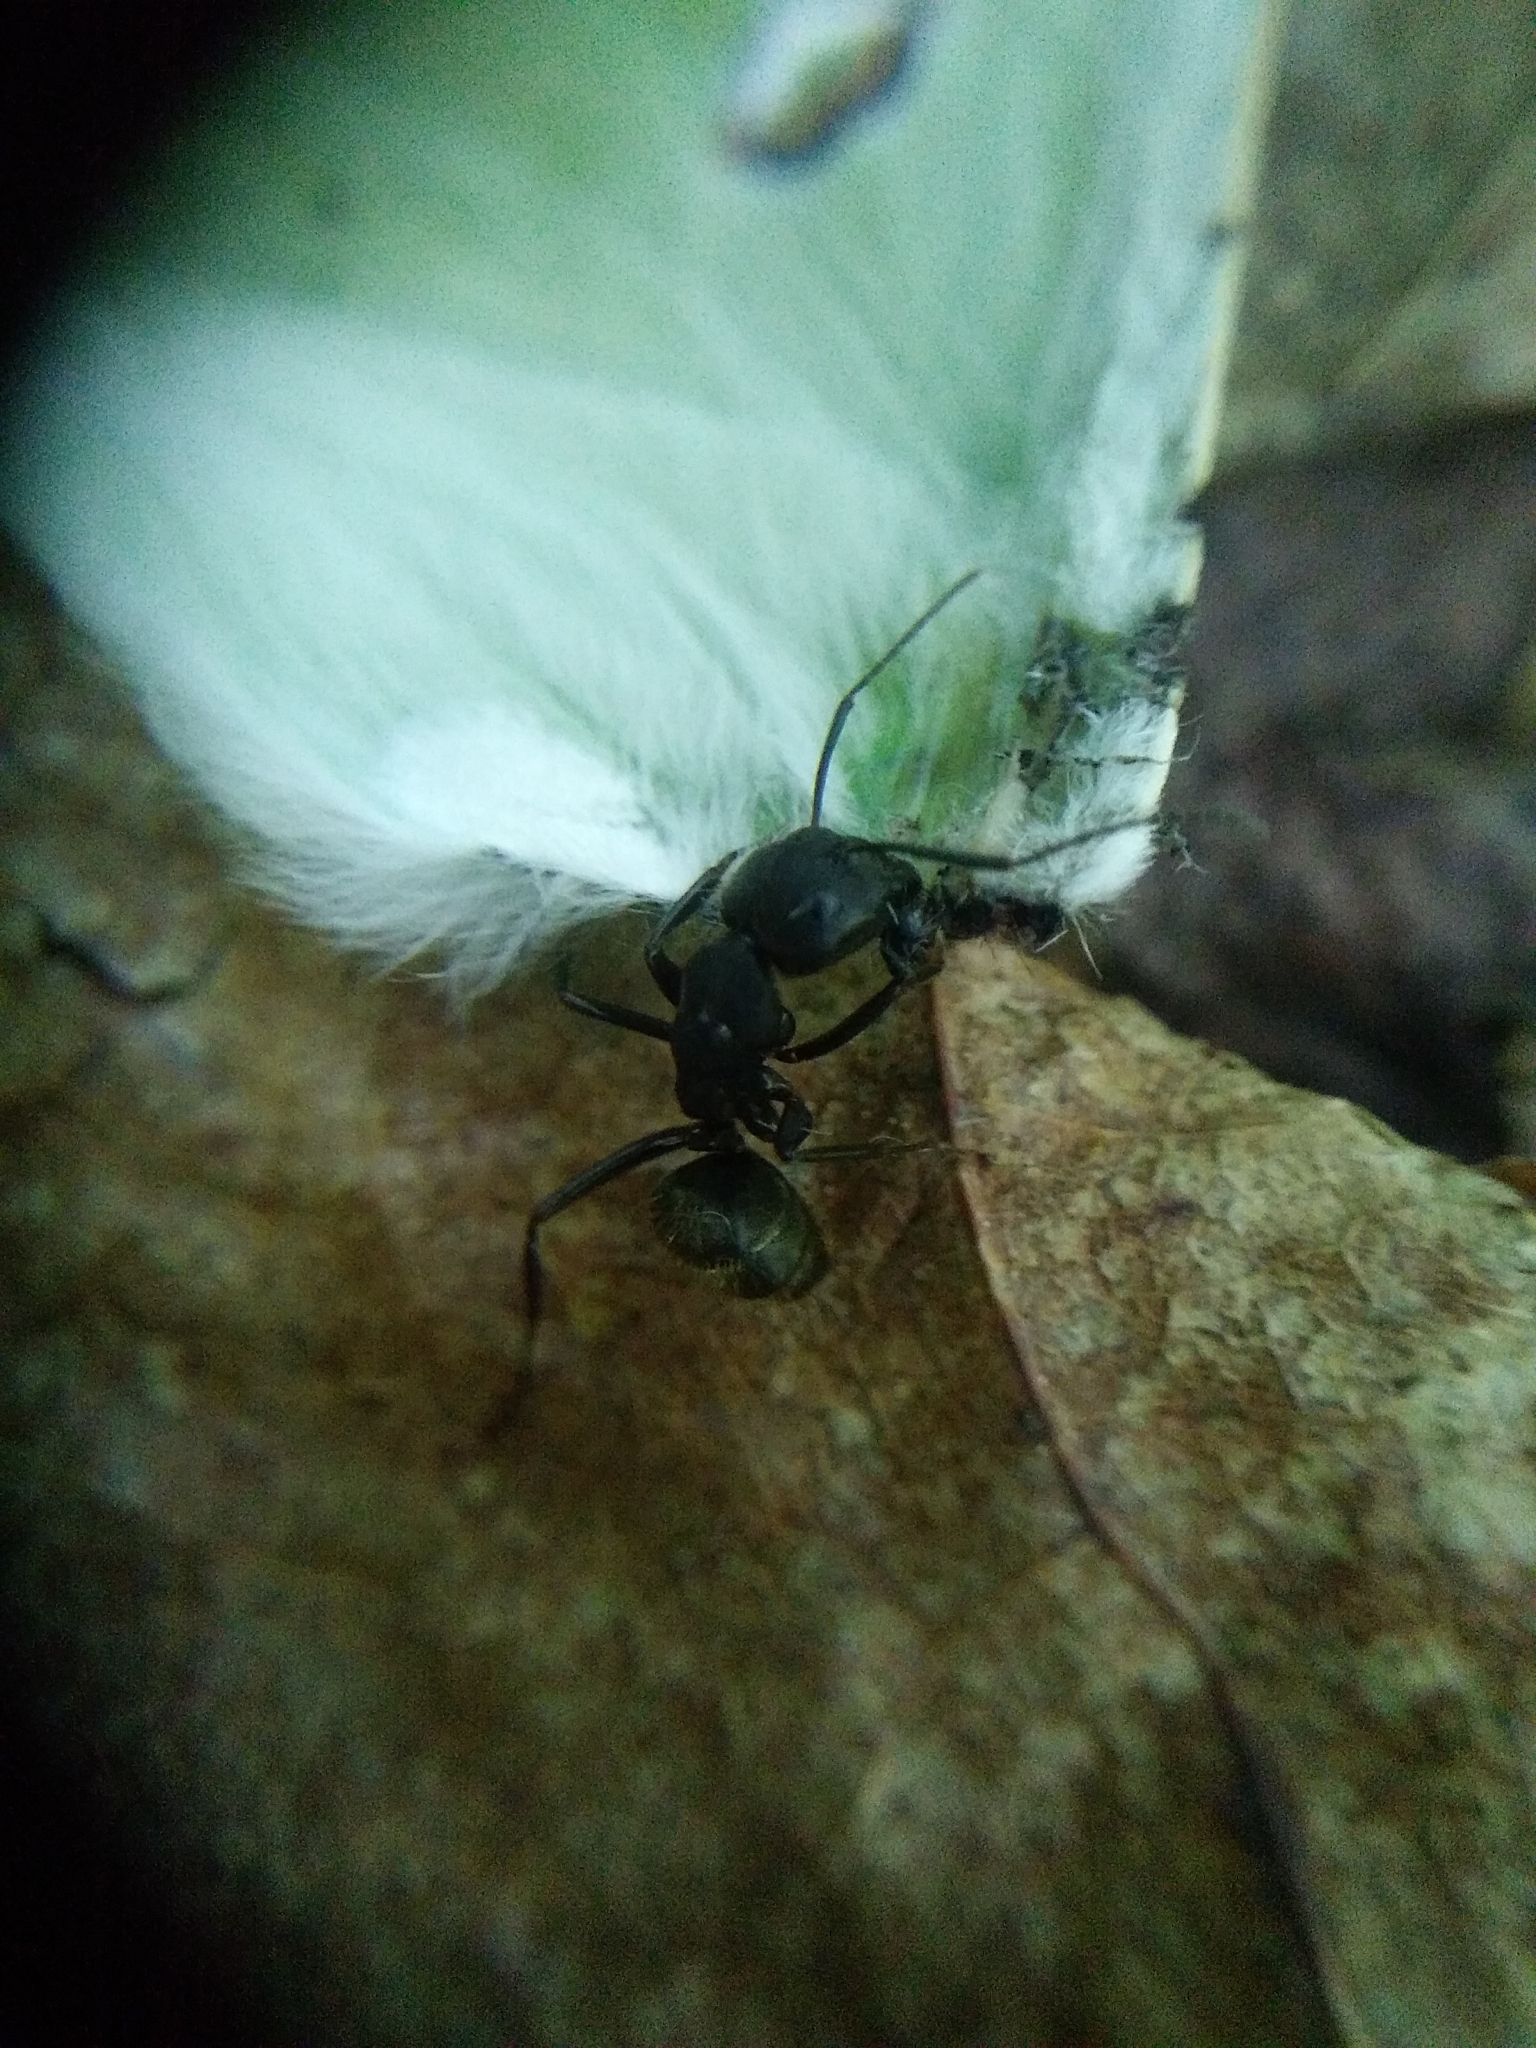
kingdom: Animalia
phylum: Arthropoda
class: Insecta
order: Hymenoptera
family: Formicidae
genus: Camponotus
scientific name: Camponotus pennsylvanicus
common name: Black carpenter ant
